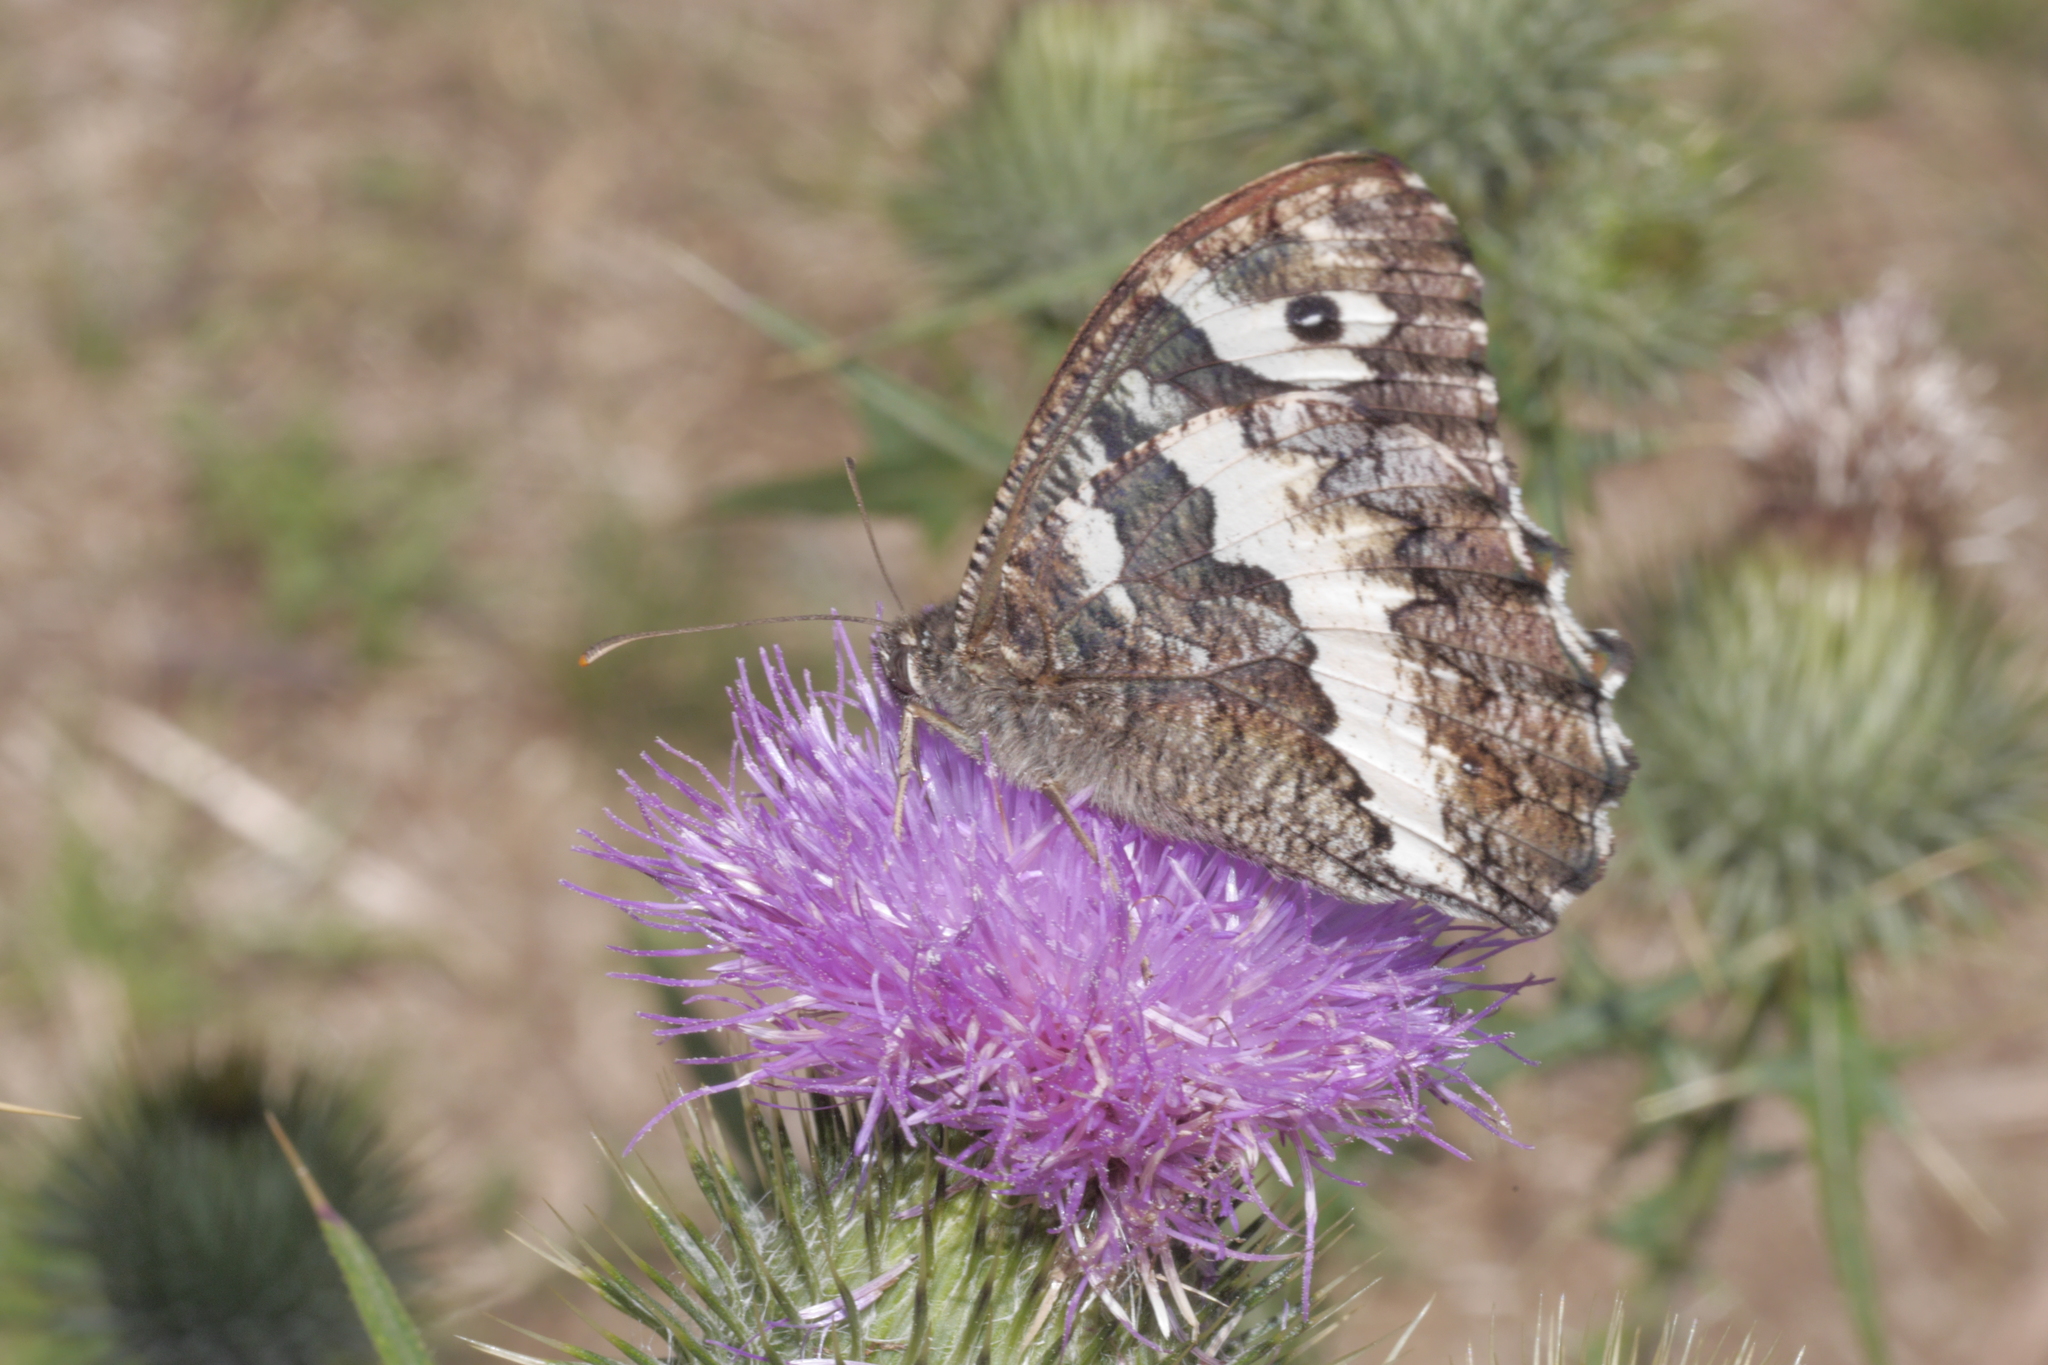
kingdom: Animalia
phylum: Arthropoda
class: Insecta
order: Lepidoptera
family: Lycaenidae
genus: Loweia
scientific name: Loweia tityrus
